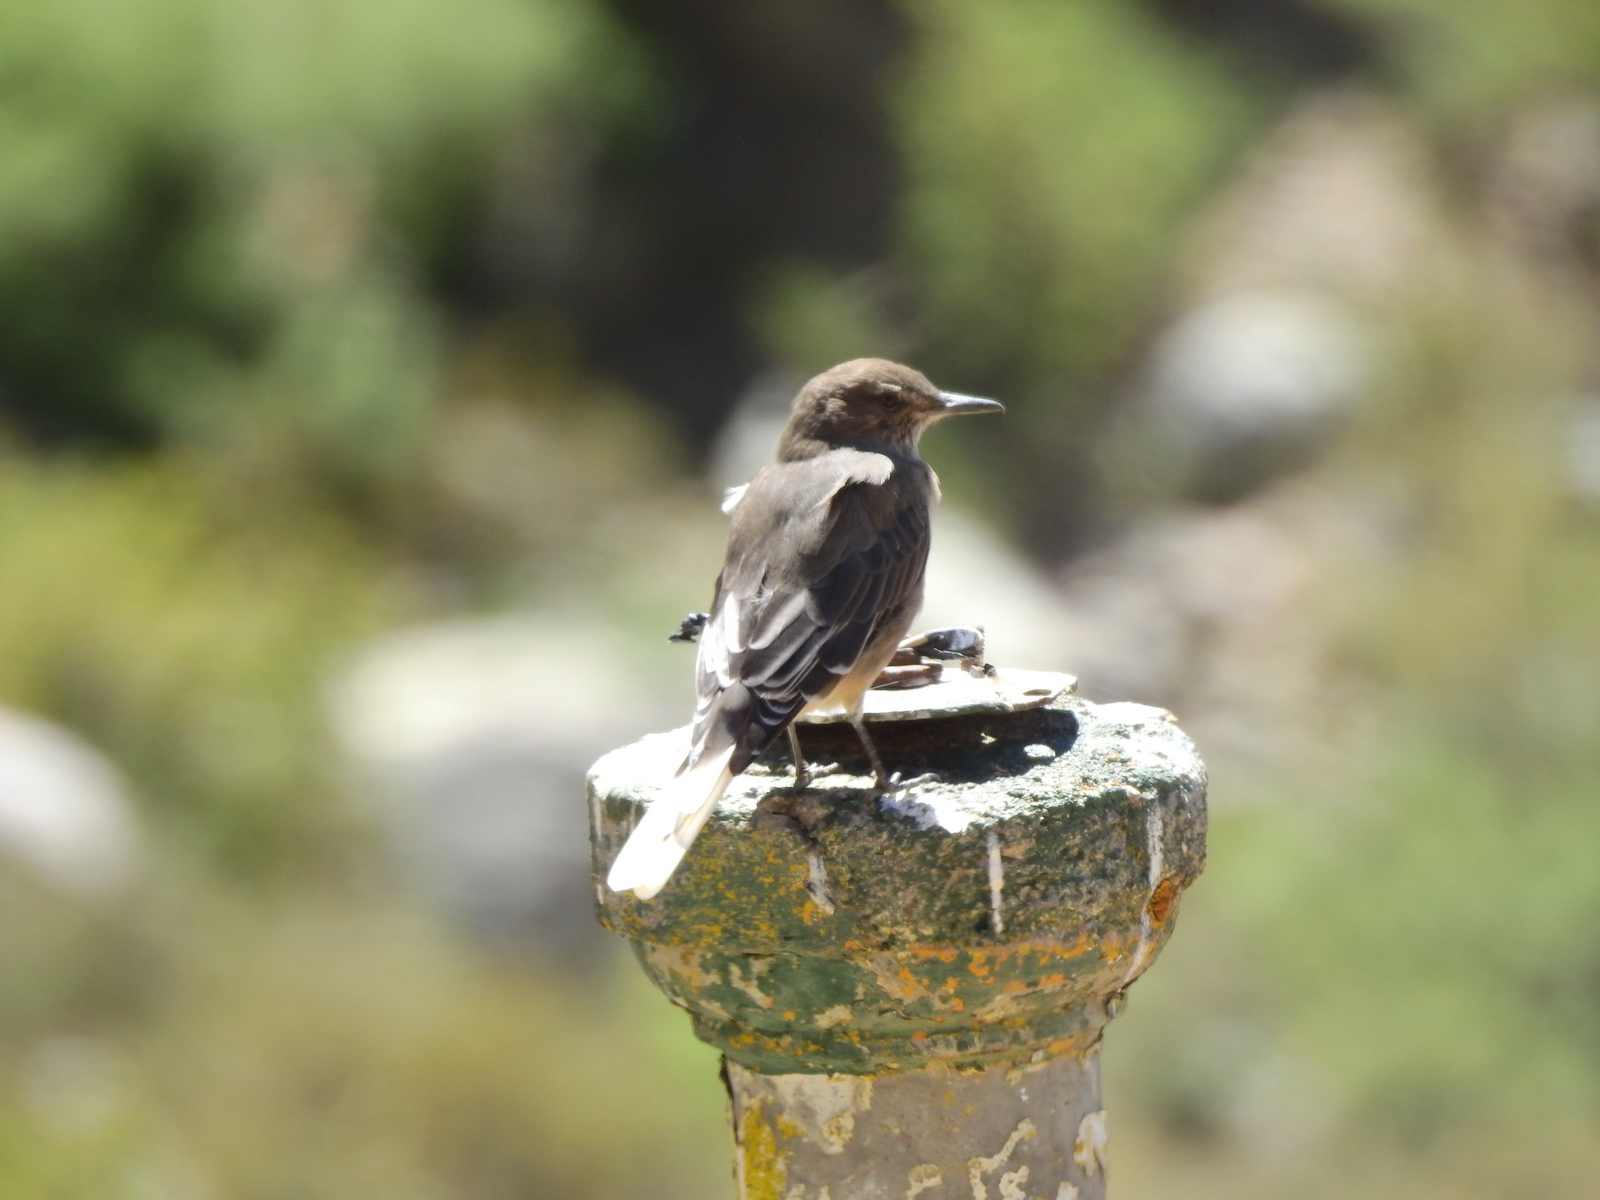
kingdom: Animalia
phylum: Chordata
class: Aves
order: Passeriformes
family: Tyrannidae
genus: Agriornis
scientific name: Agriornis montanus
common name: Black-billed shrike-tyrant
